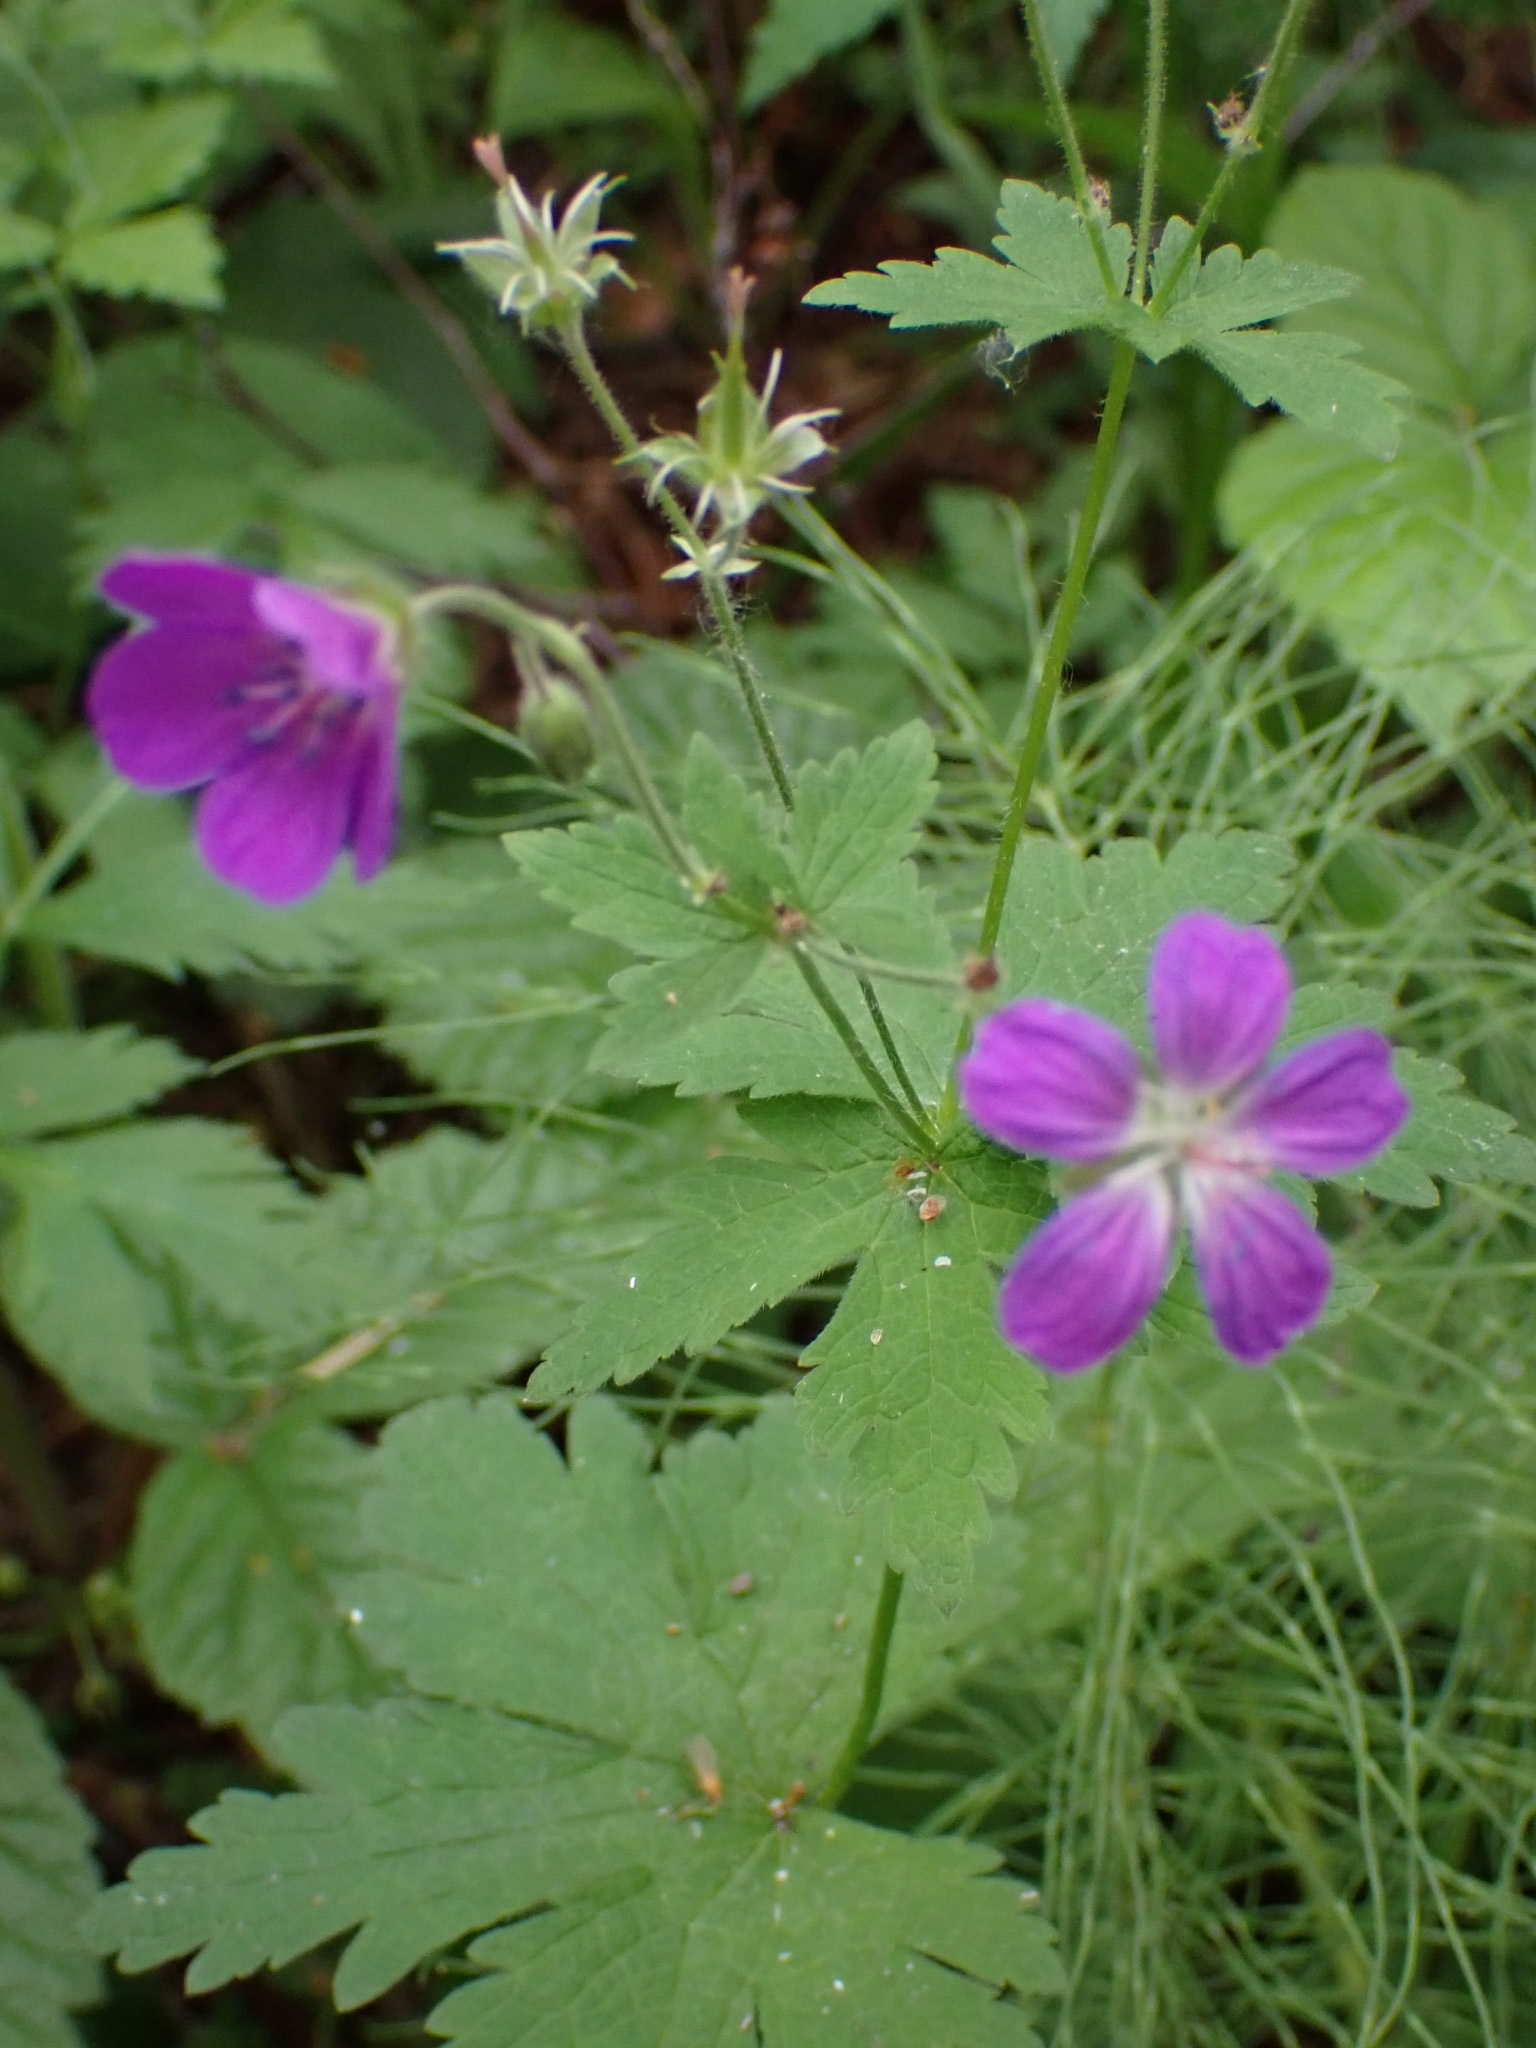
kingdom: Plantae
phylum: Tracheophyta
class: Magnoliopsida
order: Geraniales
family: Geraniaceae
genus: Geranium
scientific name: Geranium sylvaticum
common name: Wood crane's-bill
